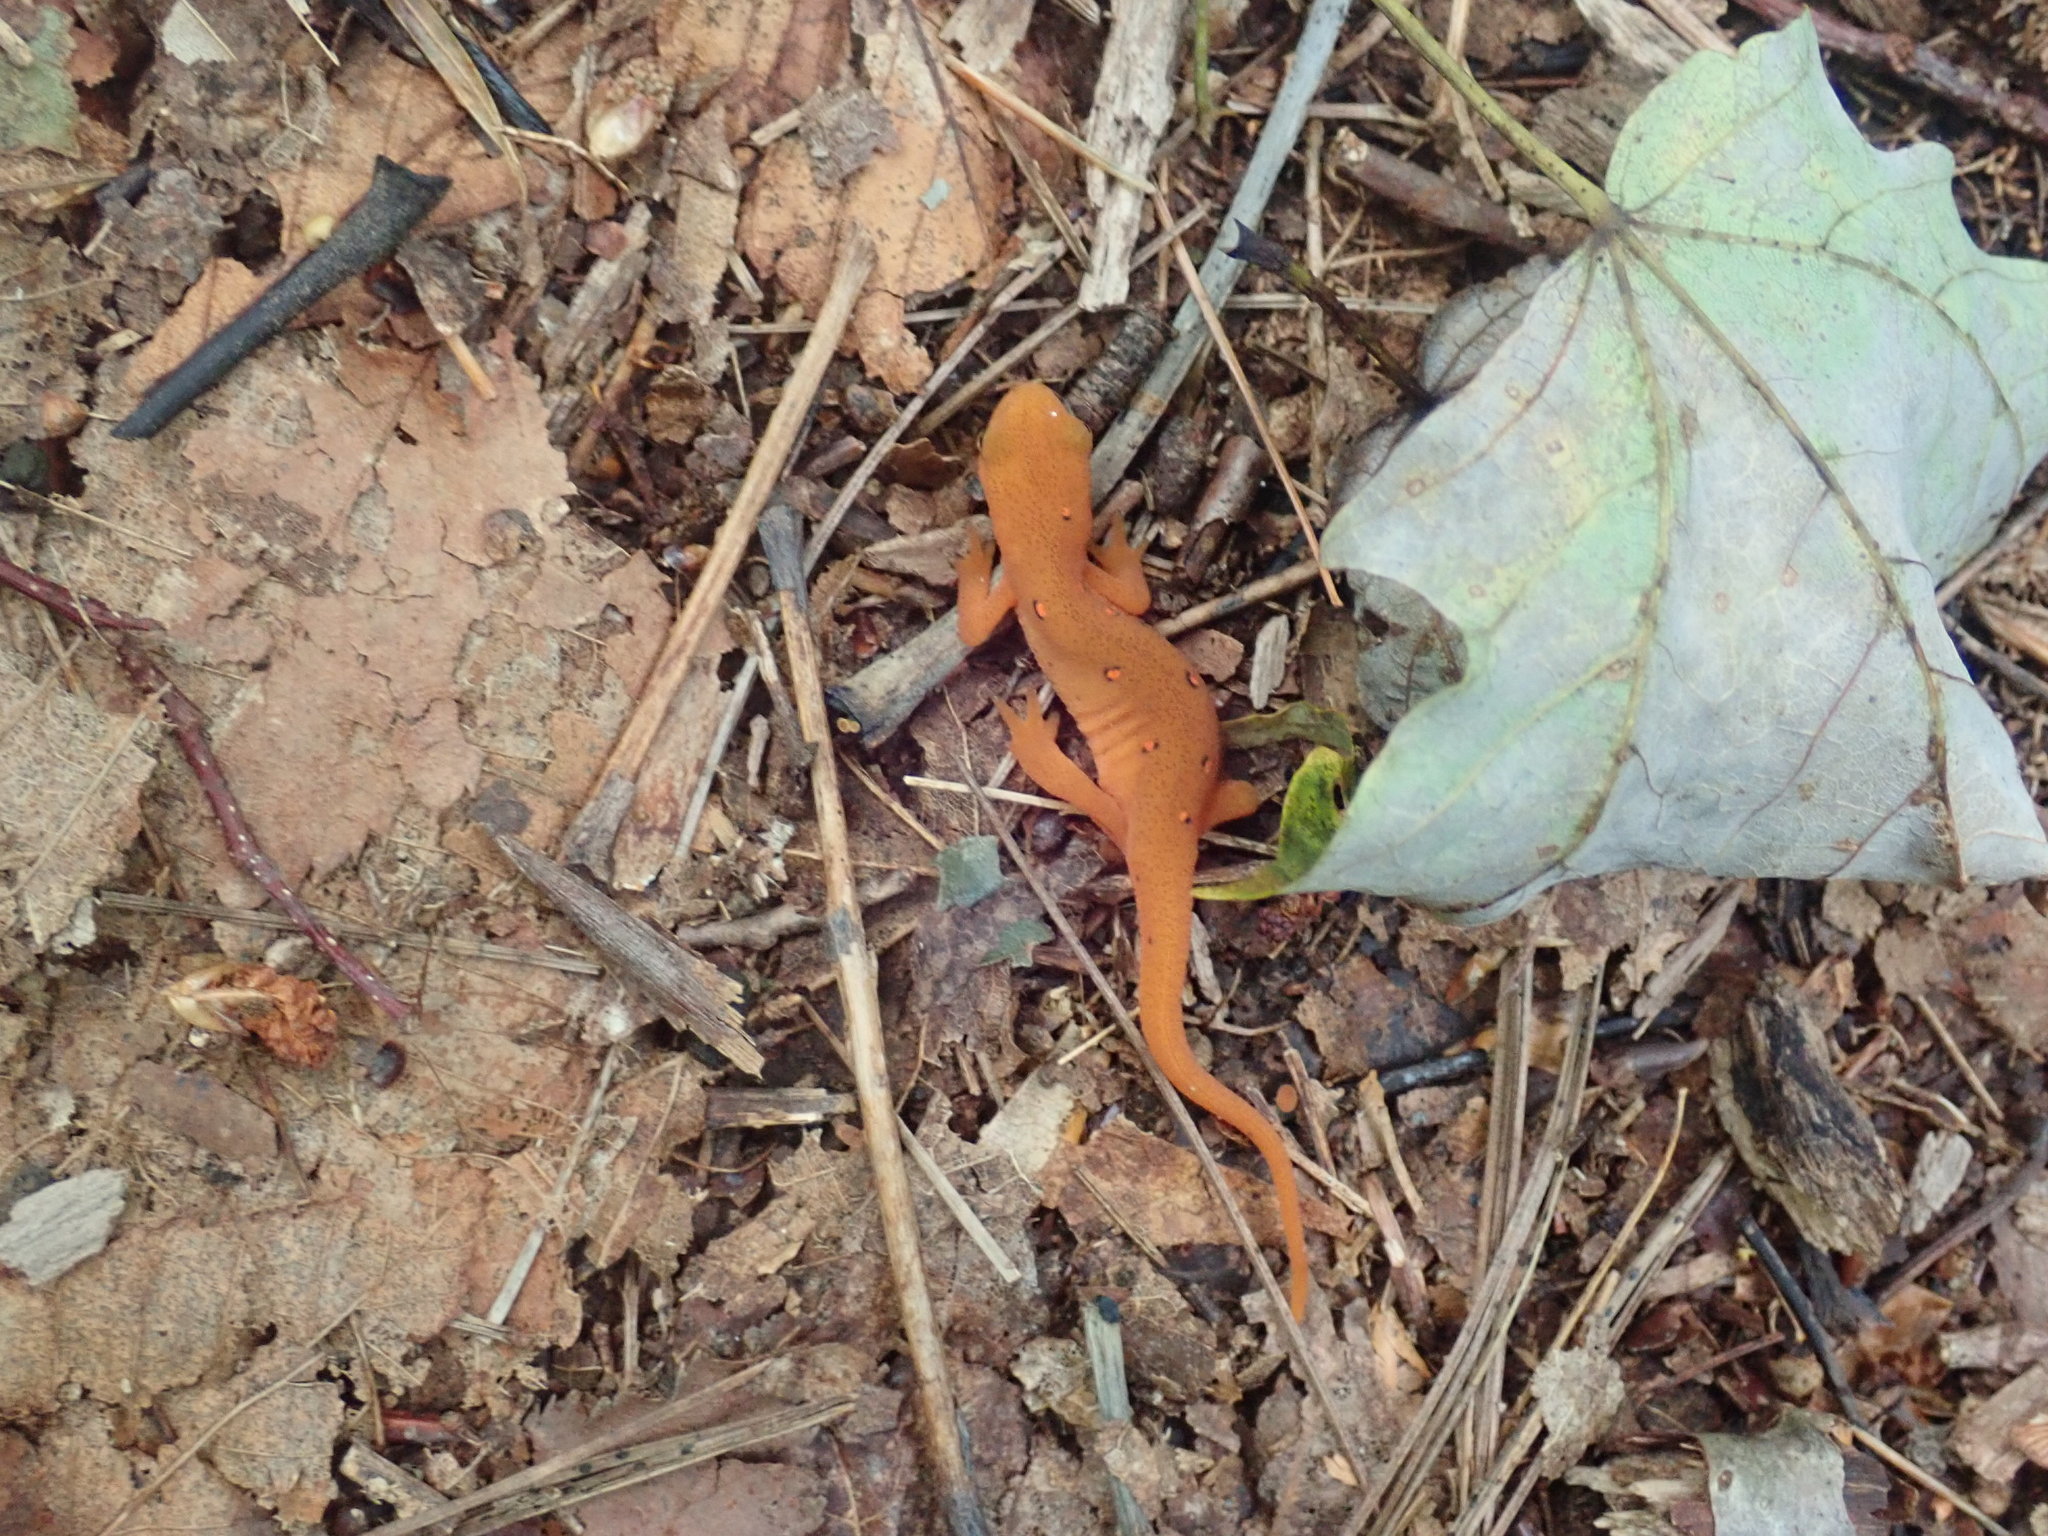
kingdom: Animalia
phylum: Chordata
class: Amphibia
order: Caudata
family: Salamandridae
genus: Notophthalmus
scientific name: Notophthalmus viridescens
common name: Eastern newt
